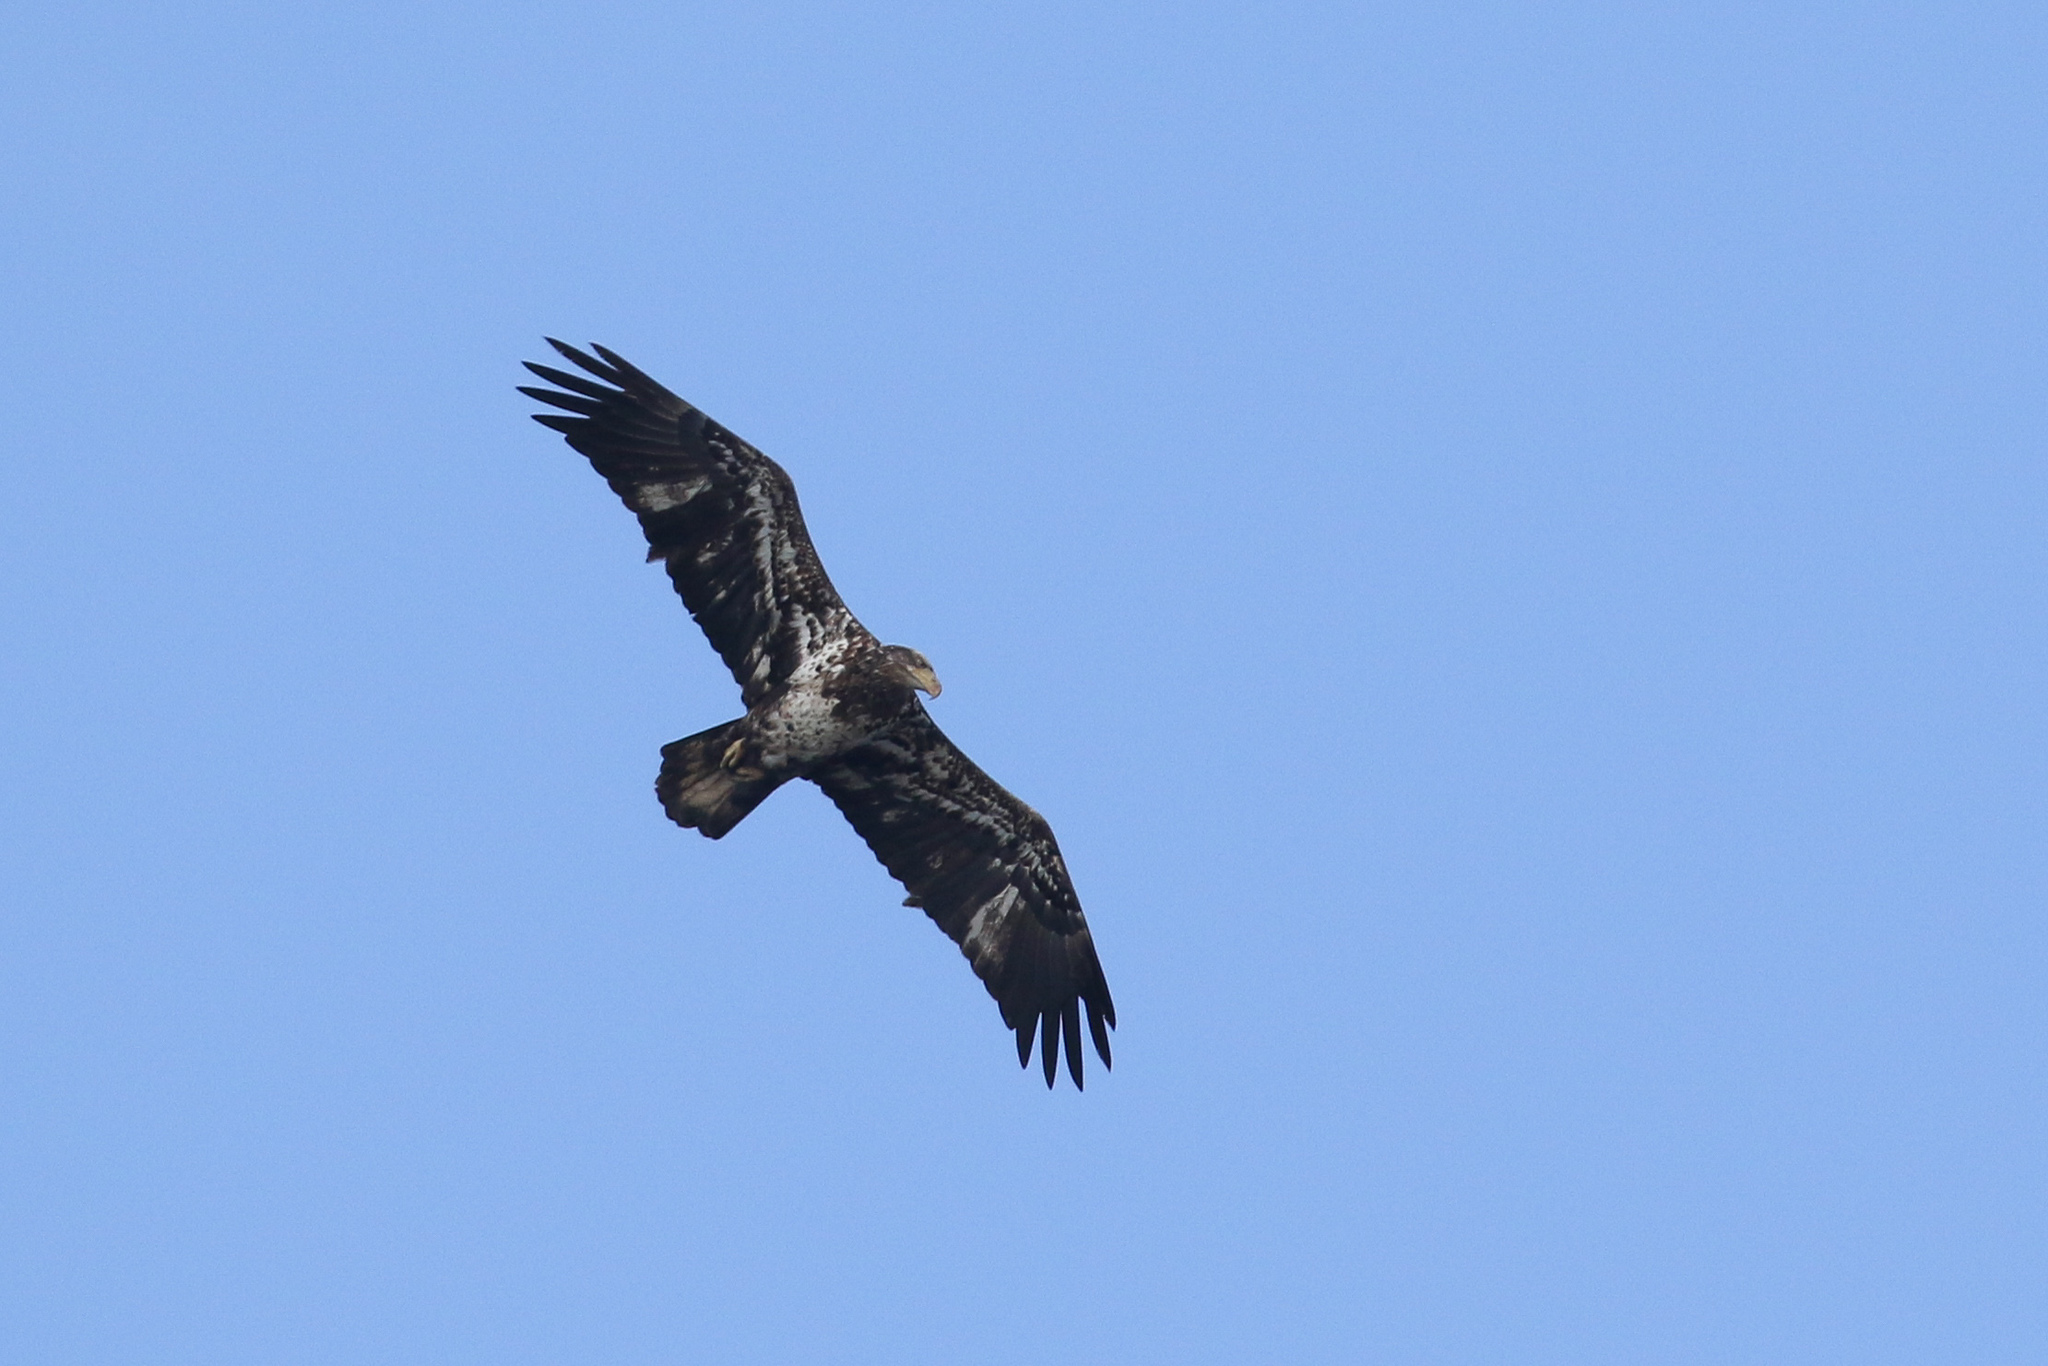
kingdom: Animalia
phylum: Chordata
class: Aves
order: Accipitriformes
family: Accipitridae
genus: Haliaeetus
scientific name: Haliaeetus leucocephalus
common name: Bald eagle
